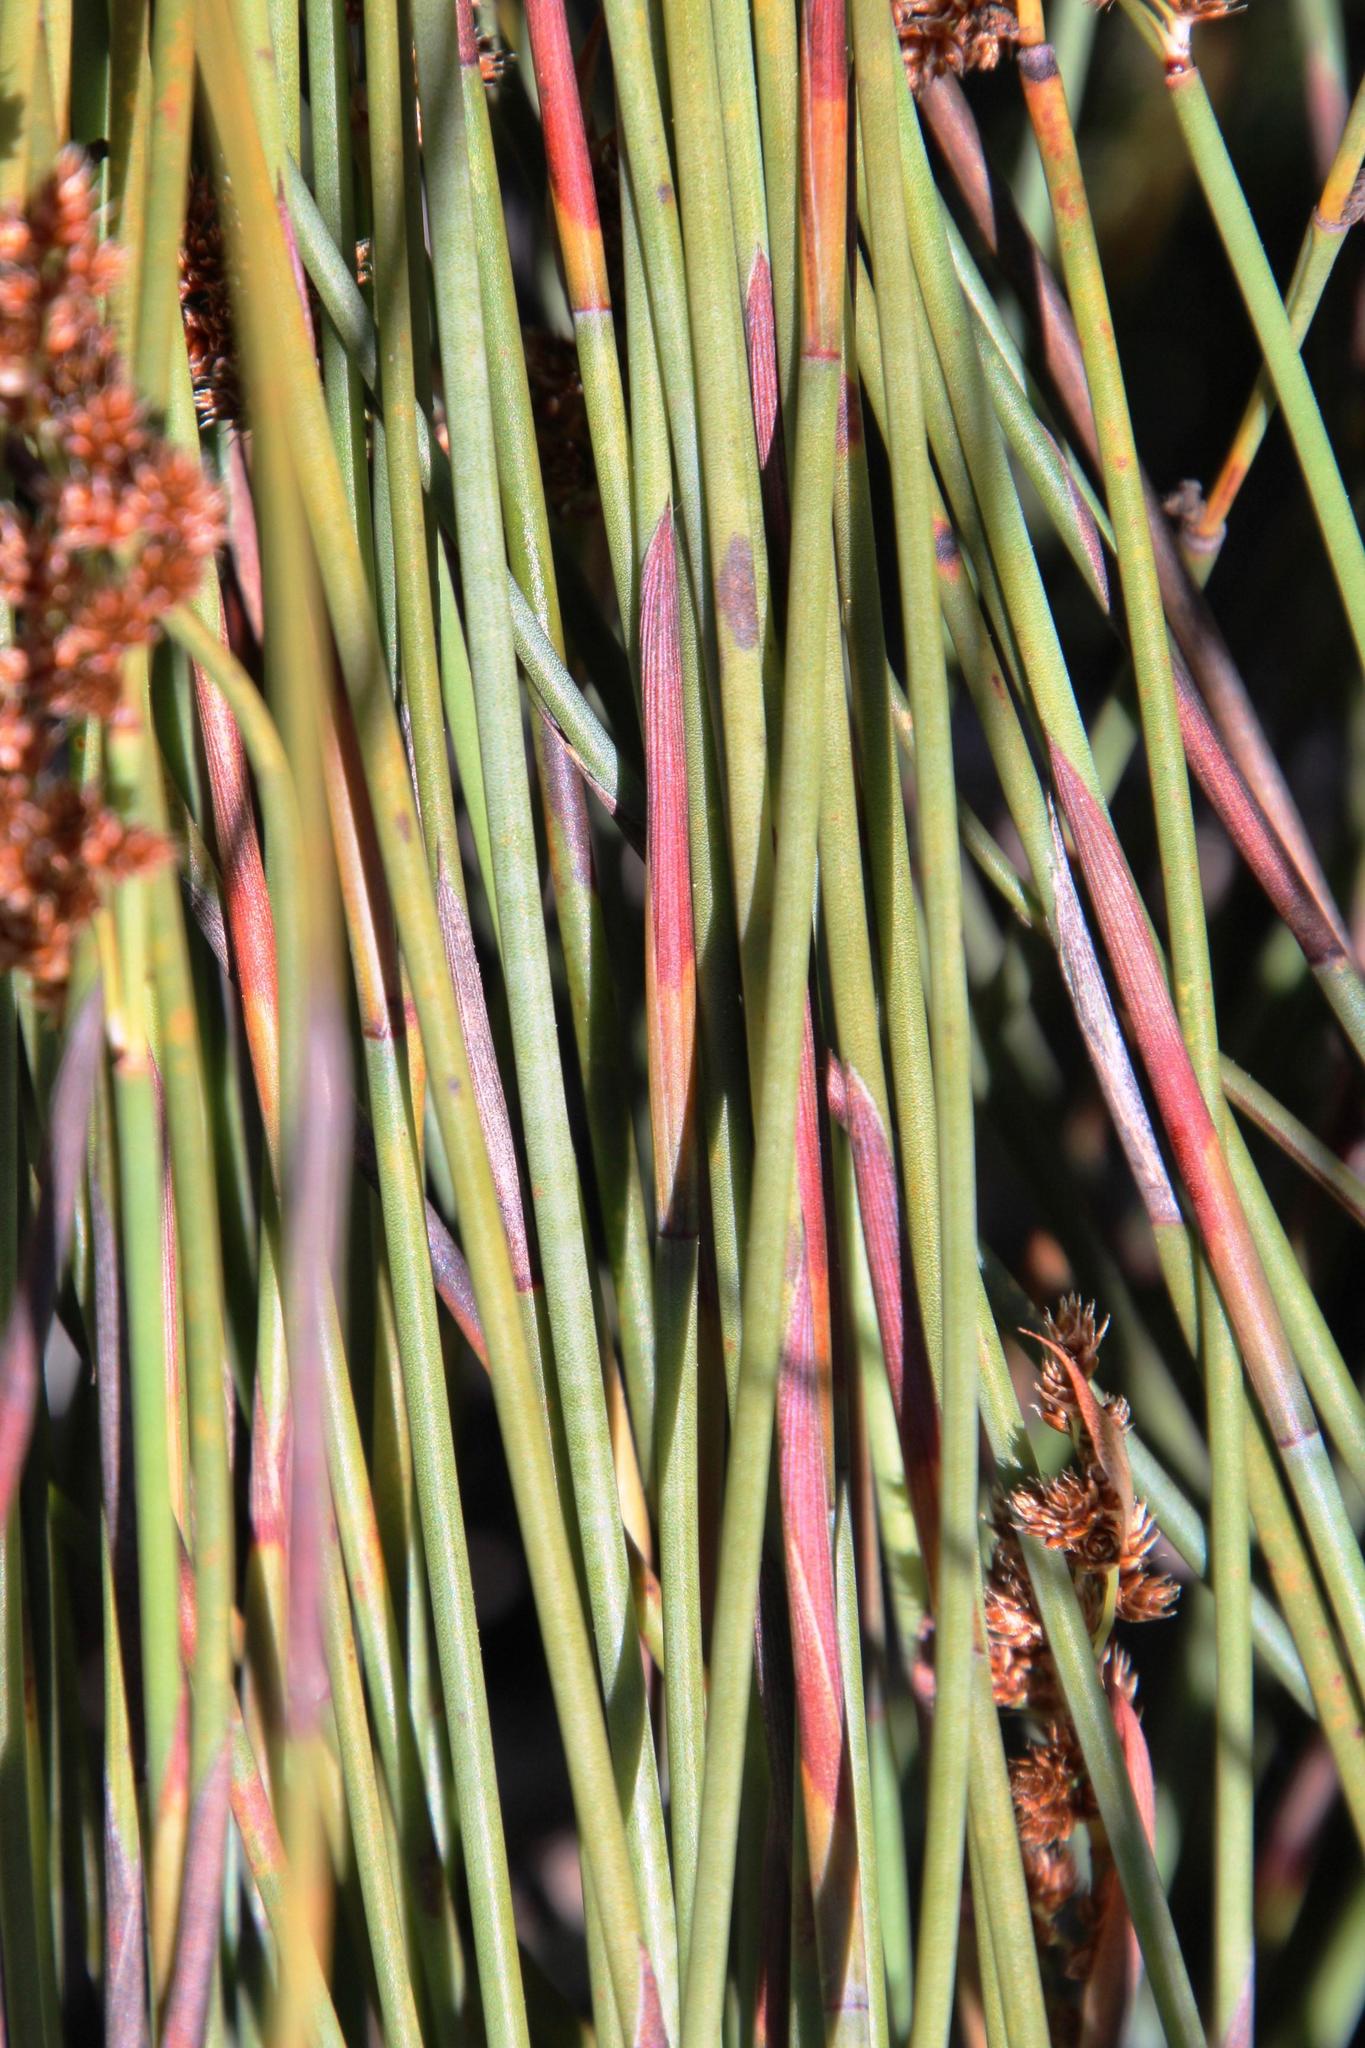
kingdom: Plantae
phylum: Tracheophyta
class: Liliopsida
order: Poales
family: Restionaceae
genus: Cannomois
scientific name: Cannomois parviflora
